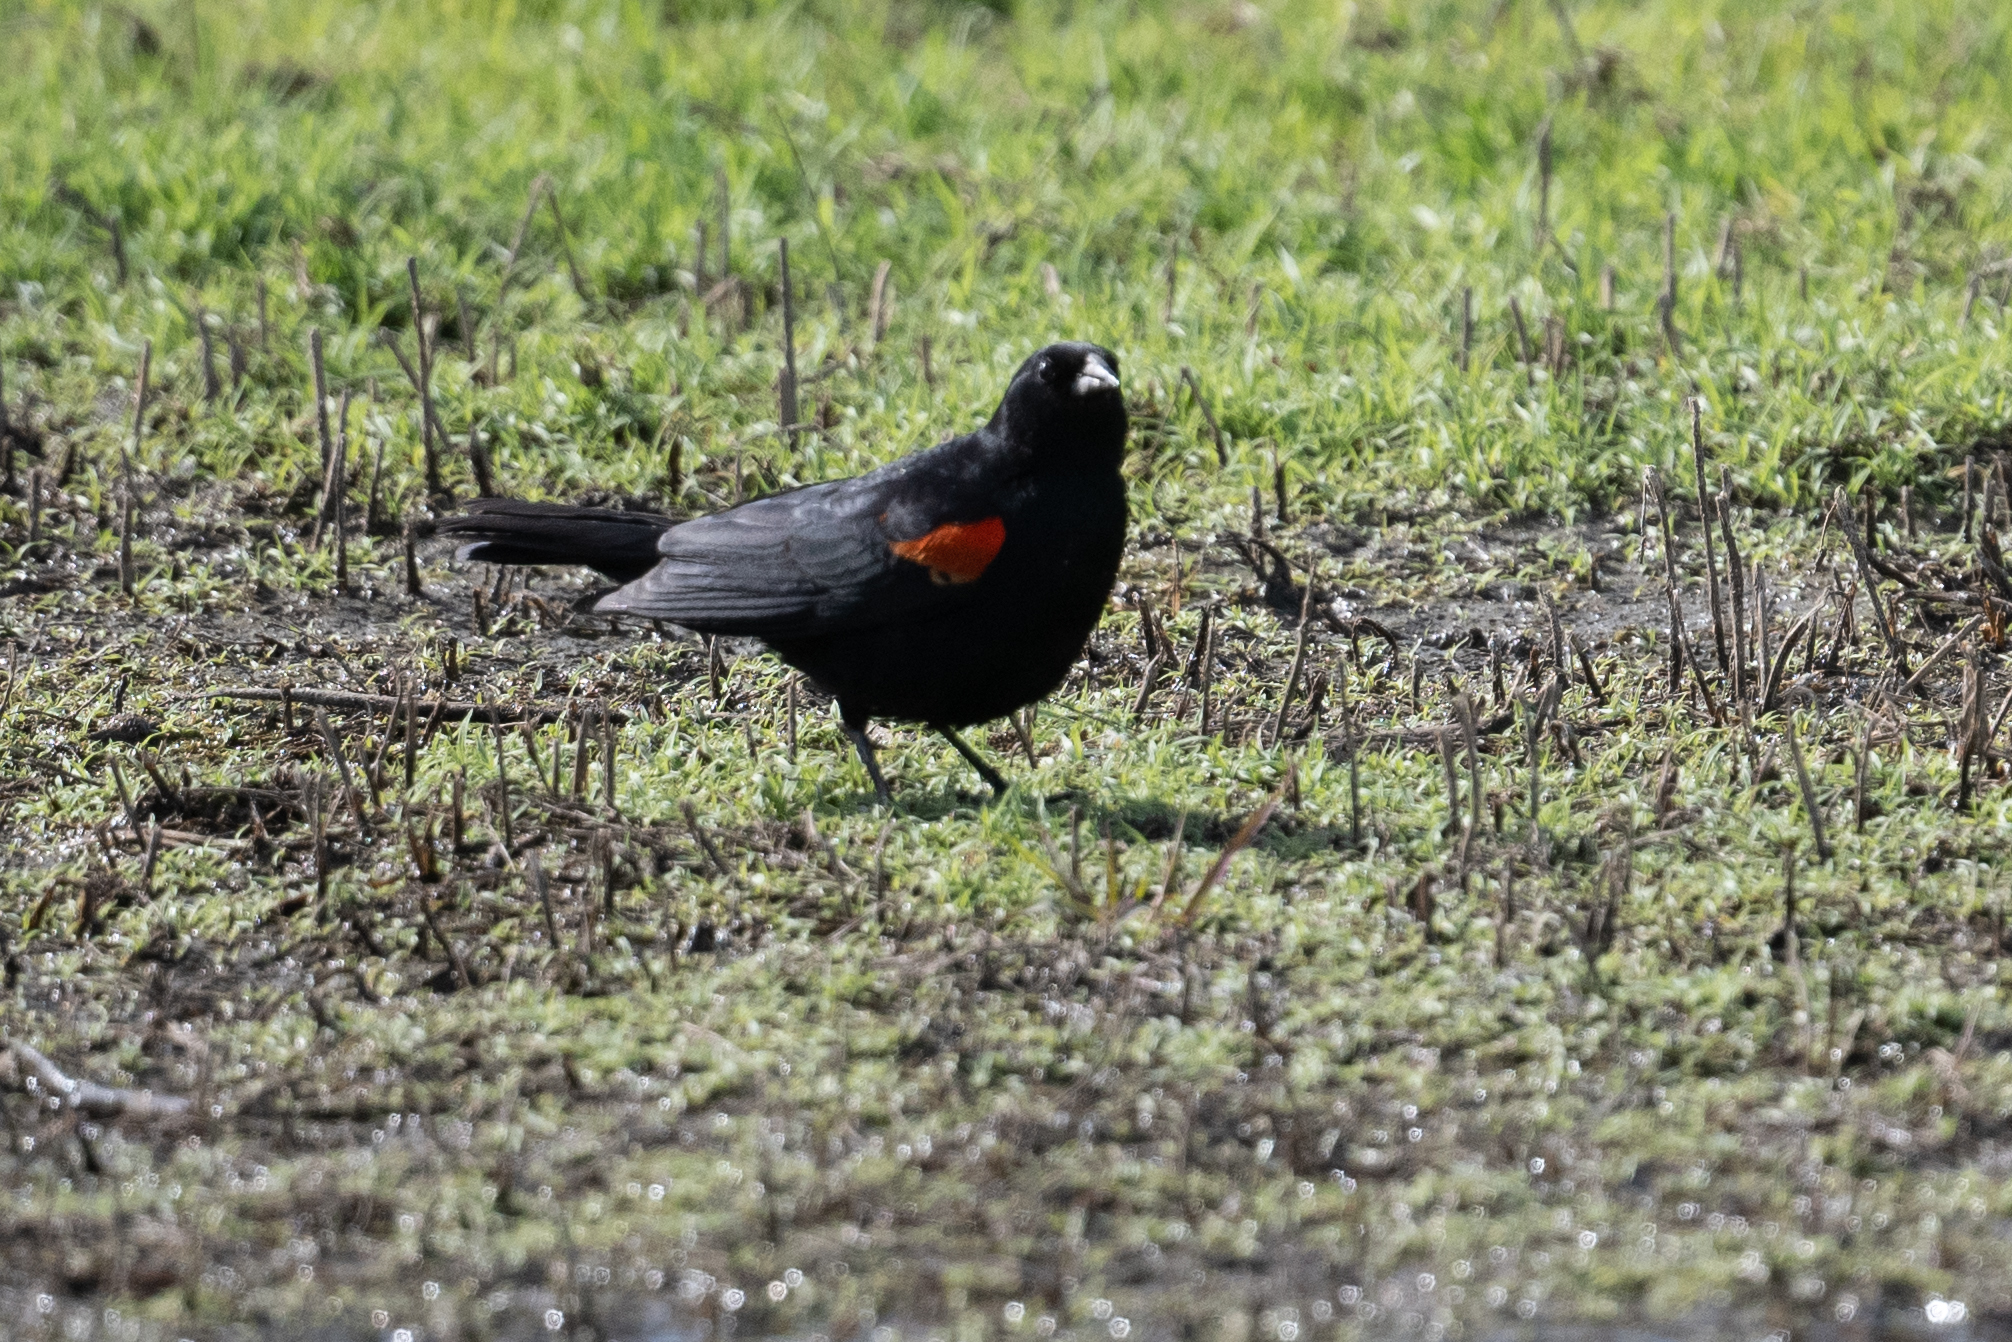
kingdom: Animalia
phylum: Chordata
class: Aves
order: Passeriformes
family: Icteridae
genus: Agelaius
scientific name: Agelaius phoeniceus
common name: Red-winged blackbird
